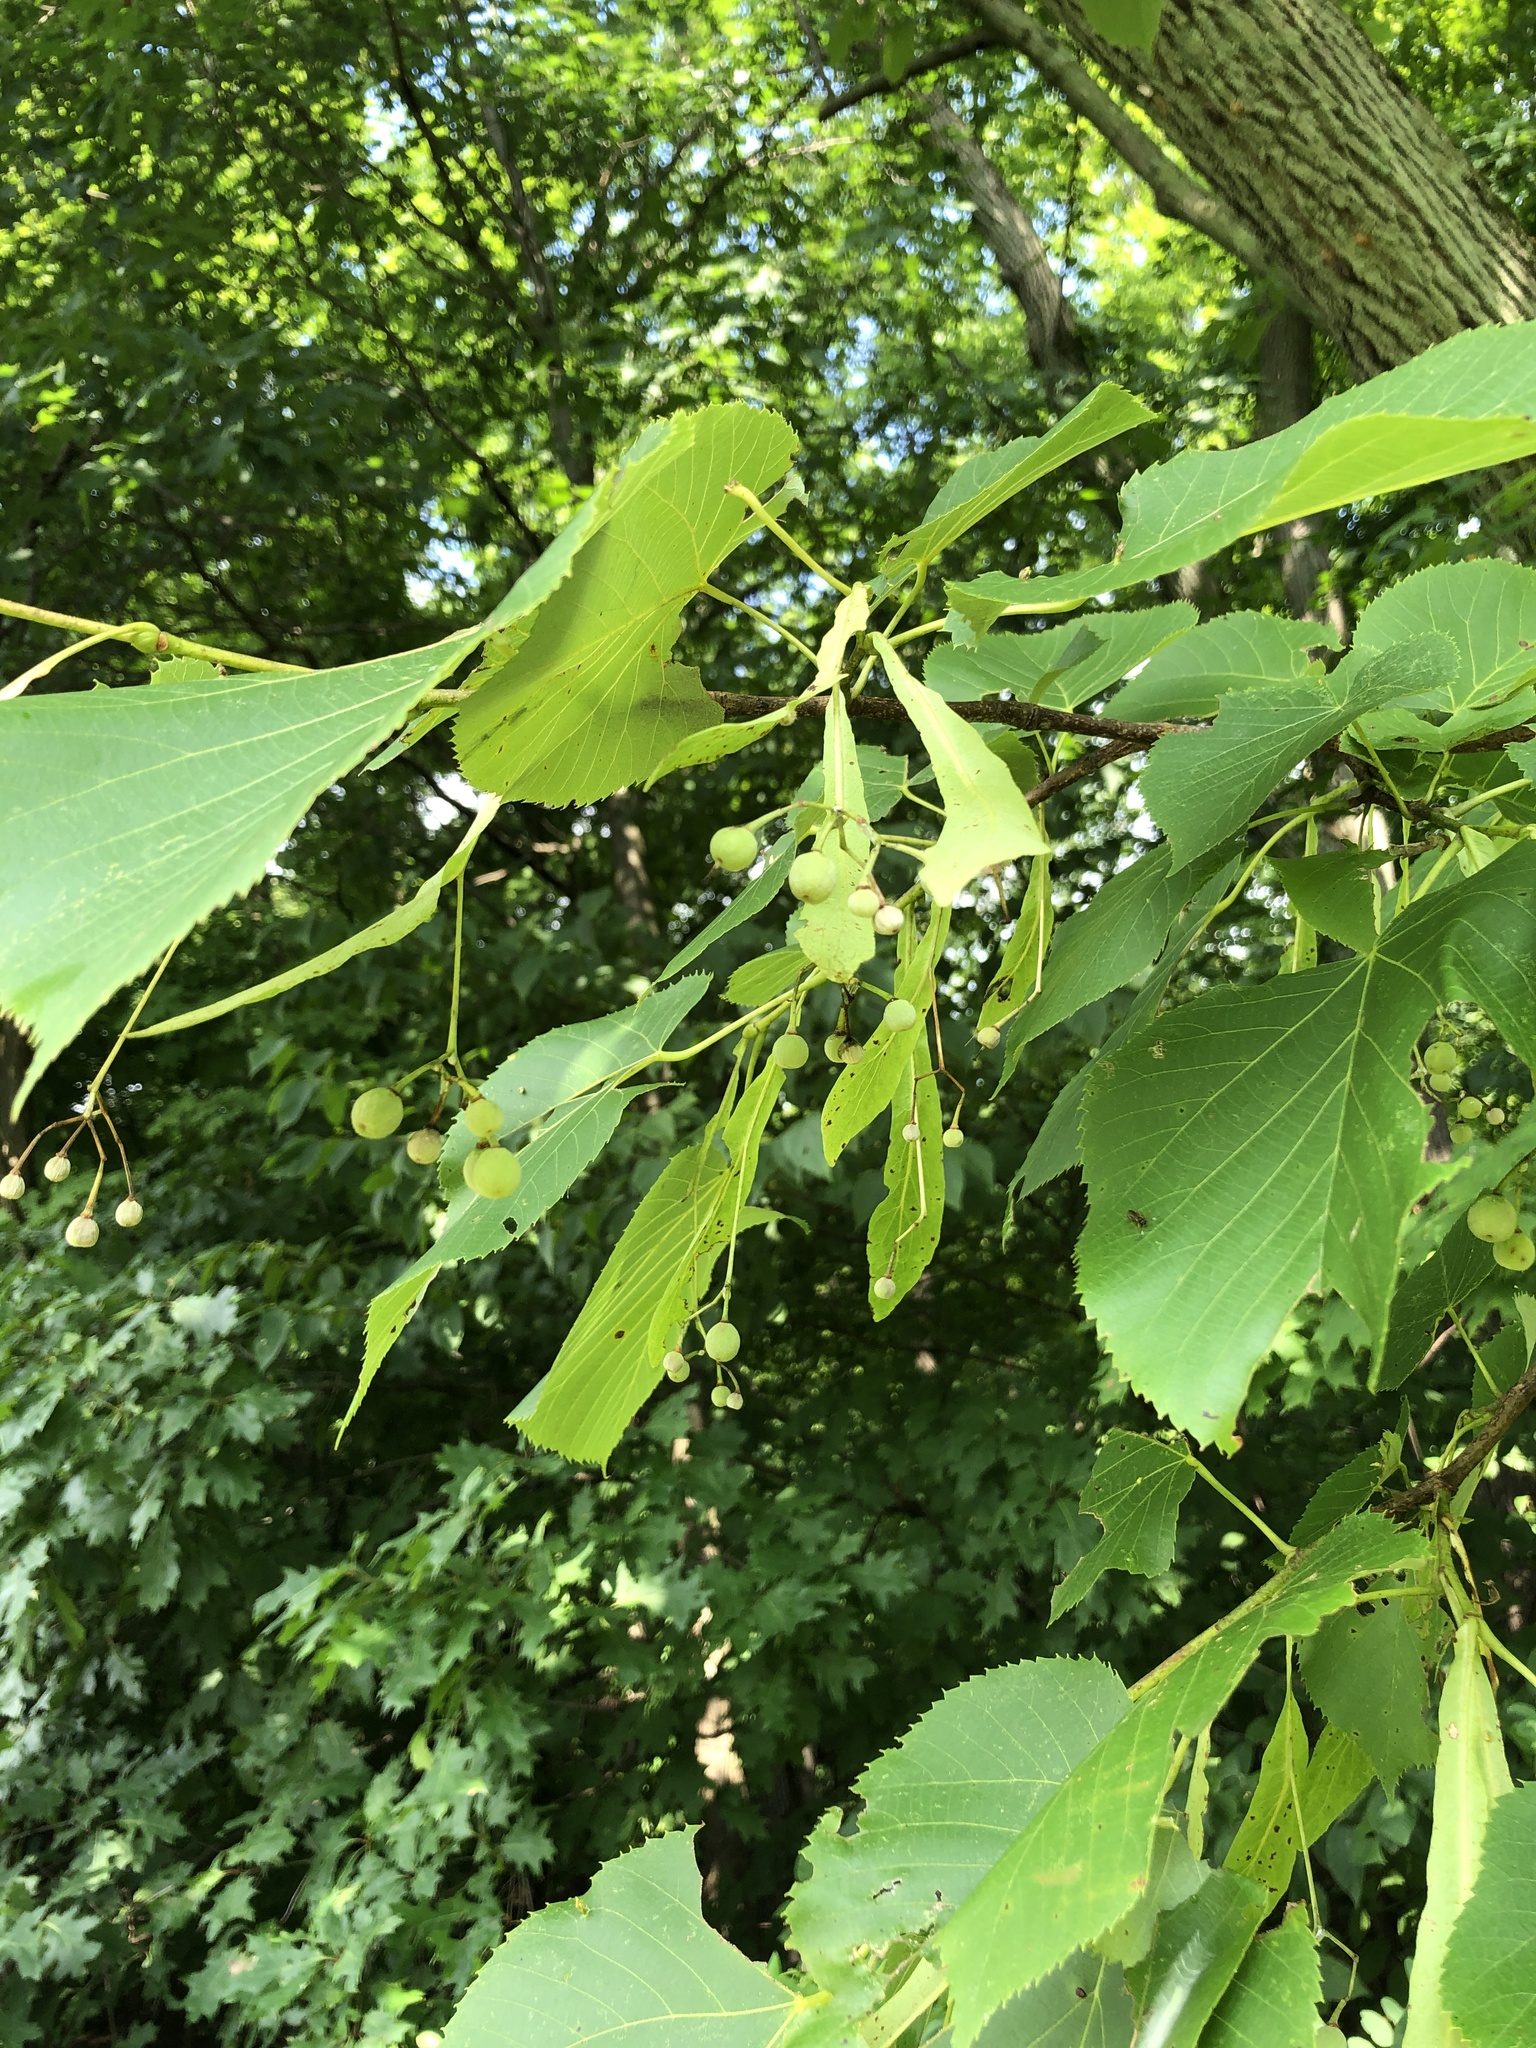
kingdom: Plantae
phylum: Tracheophyta
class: Magnoliopsida
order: Malvales
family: Malvaceae
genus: Tilia
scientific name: Tilia americana
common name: Basswood
